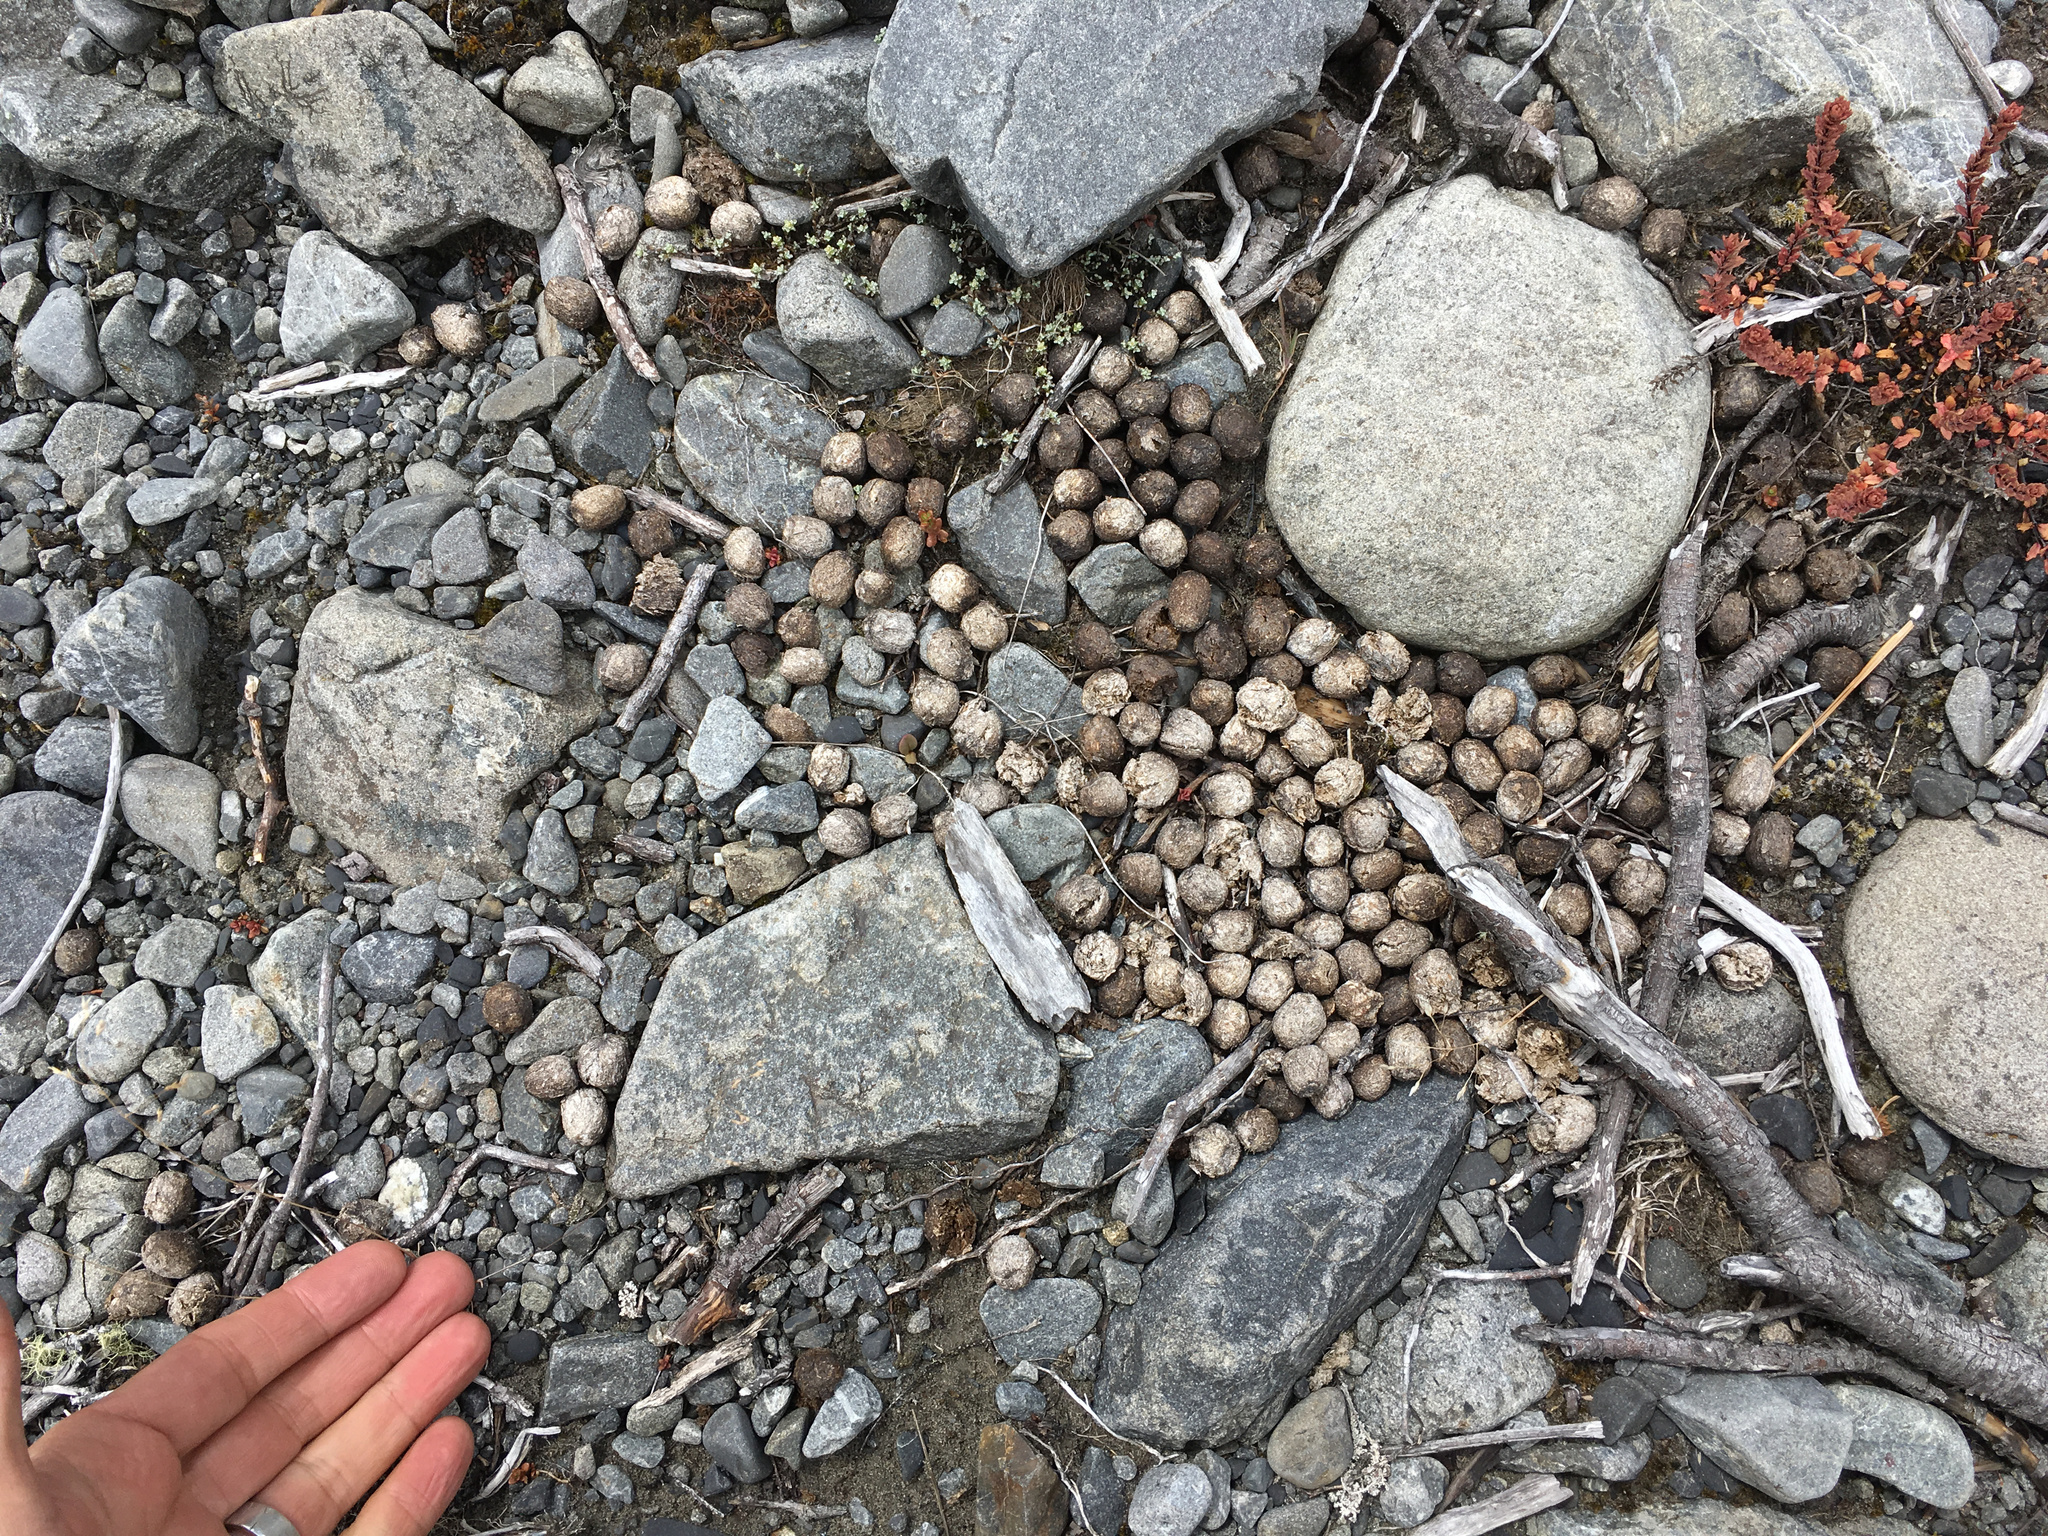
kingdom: Animalia
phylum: Chordata
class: Mammalia
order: Lagomorpha
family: Leporidae
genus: Oryctolagus
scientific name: Oryctolagus cuniculus
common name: European rabbit
